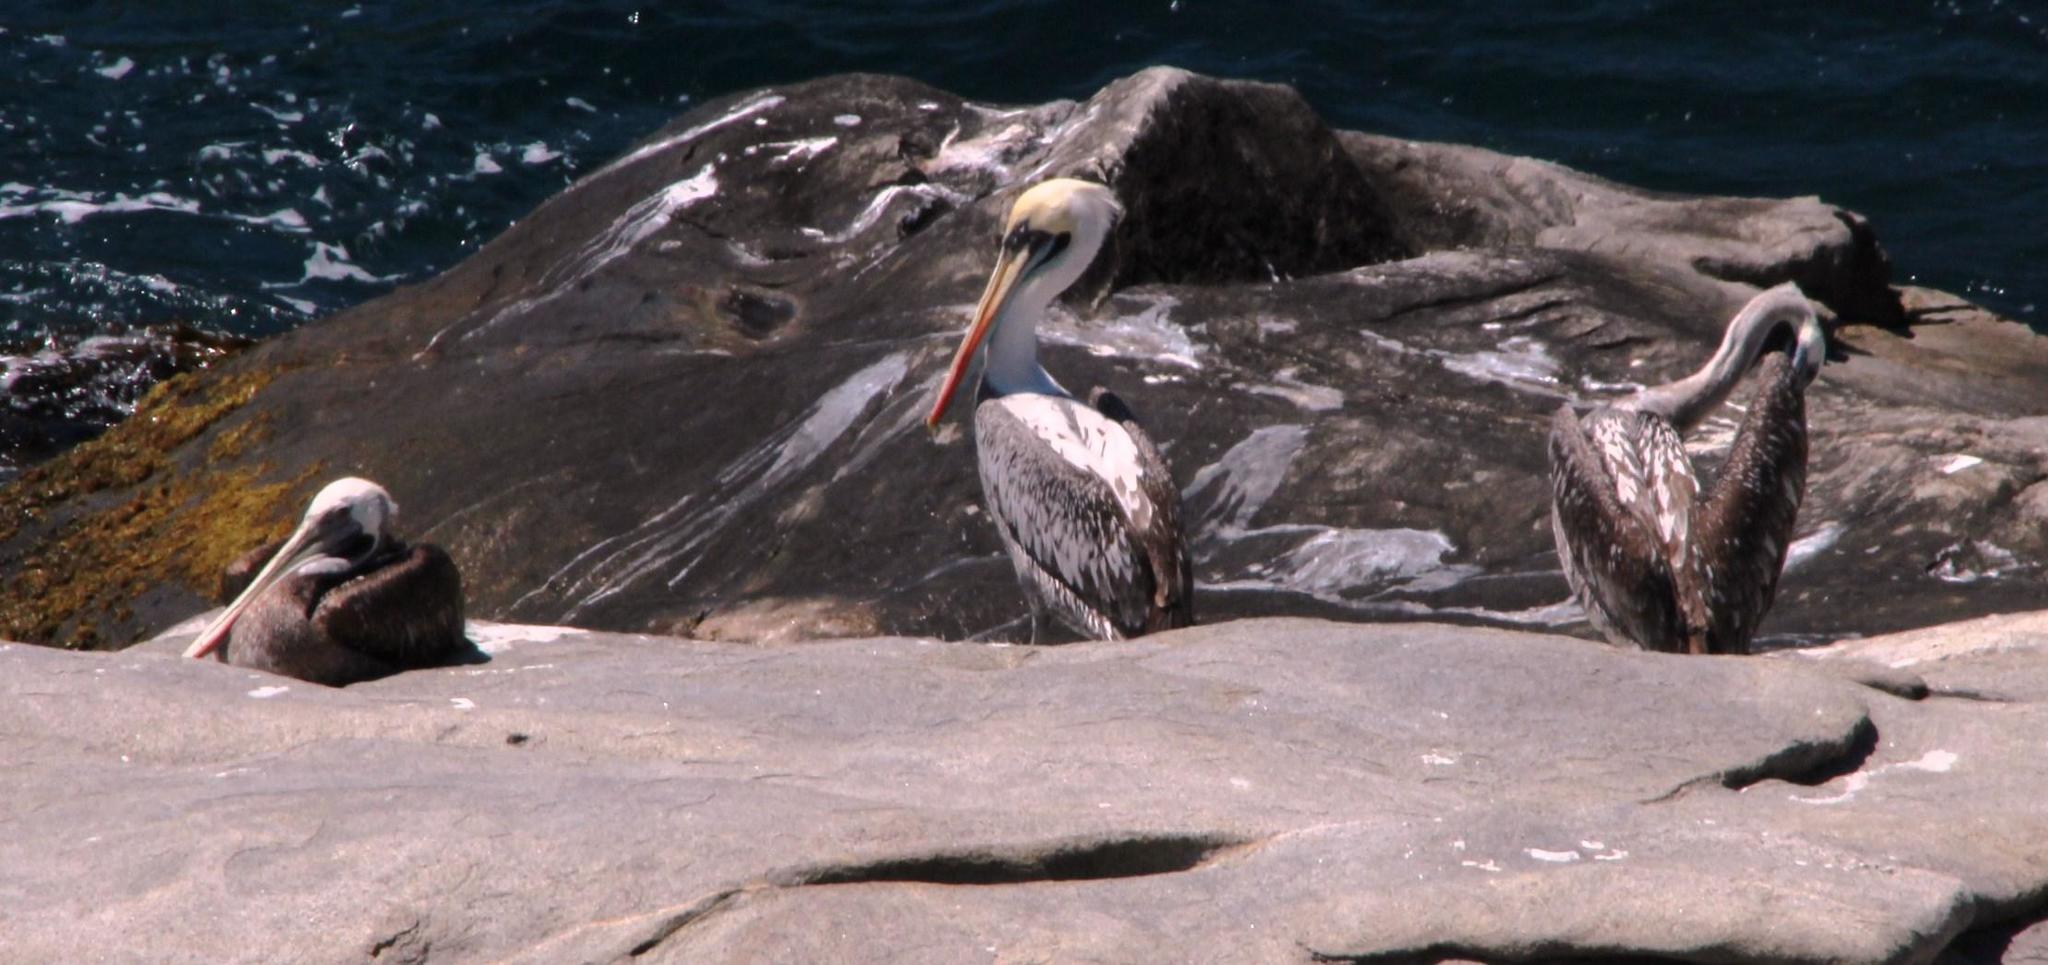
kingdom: Animalia
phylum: Chordata
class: Aves
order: Pelecaniformes
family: Pelecanidae
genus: Pelecanus
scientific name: Pelecanus thagus
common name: Peruvian pelican
